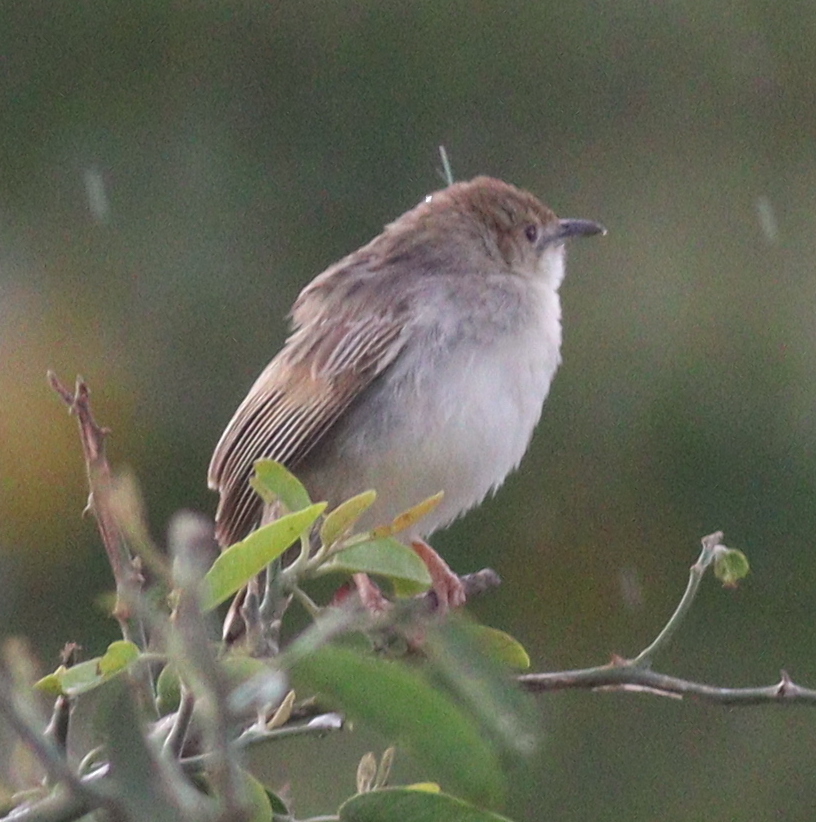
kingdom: Animalia
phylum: Chordata
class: Aves
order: Passeriformes
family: Cisticolidae
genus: Cisticola
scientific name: Cisticola chiniana
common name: Rattling cisticola
